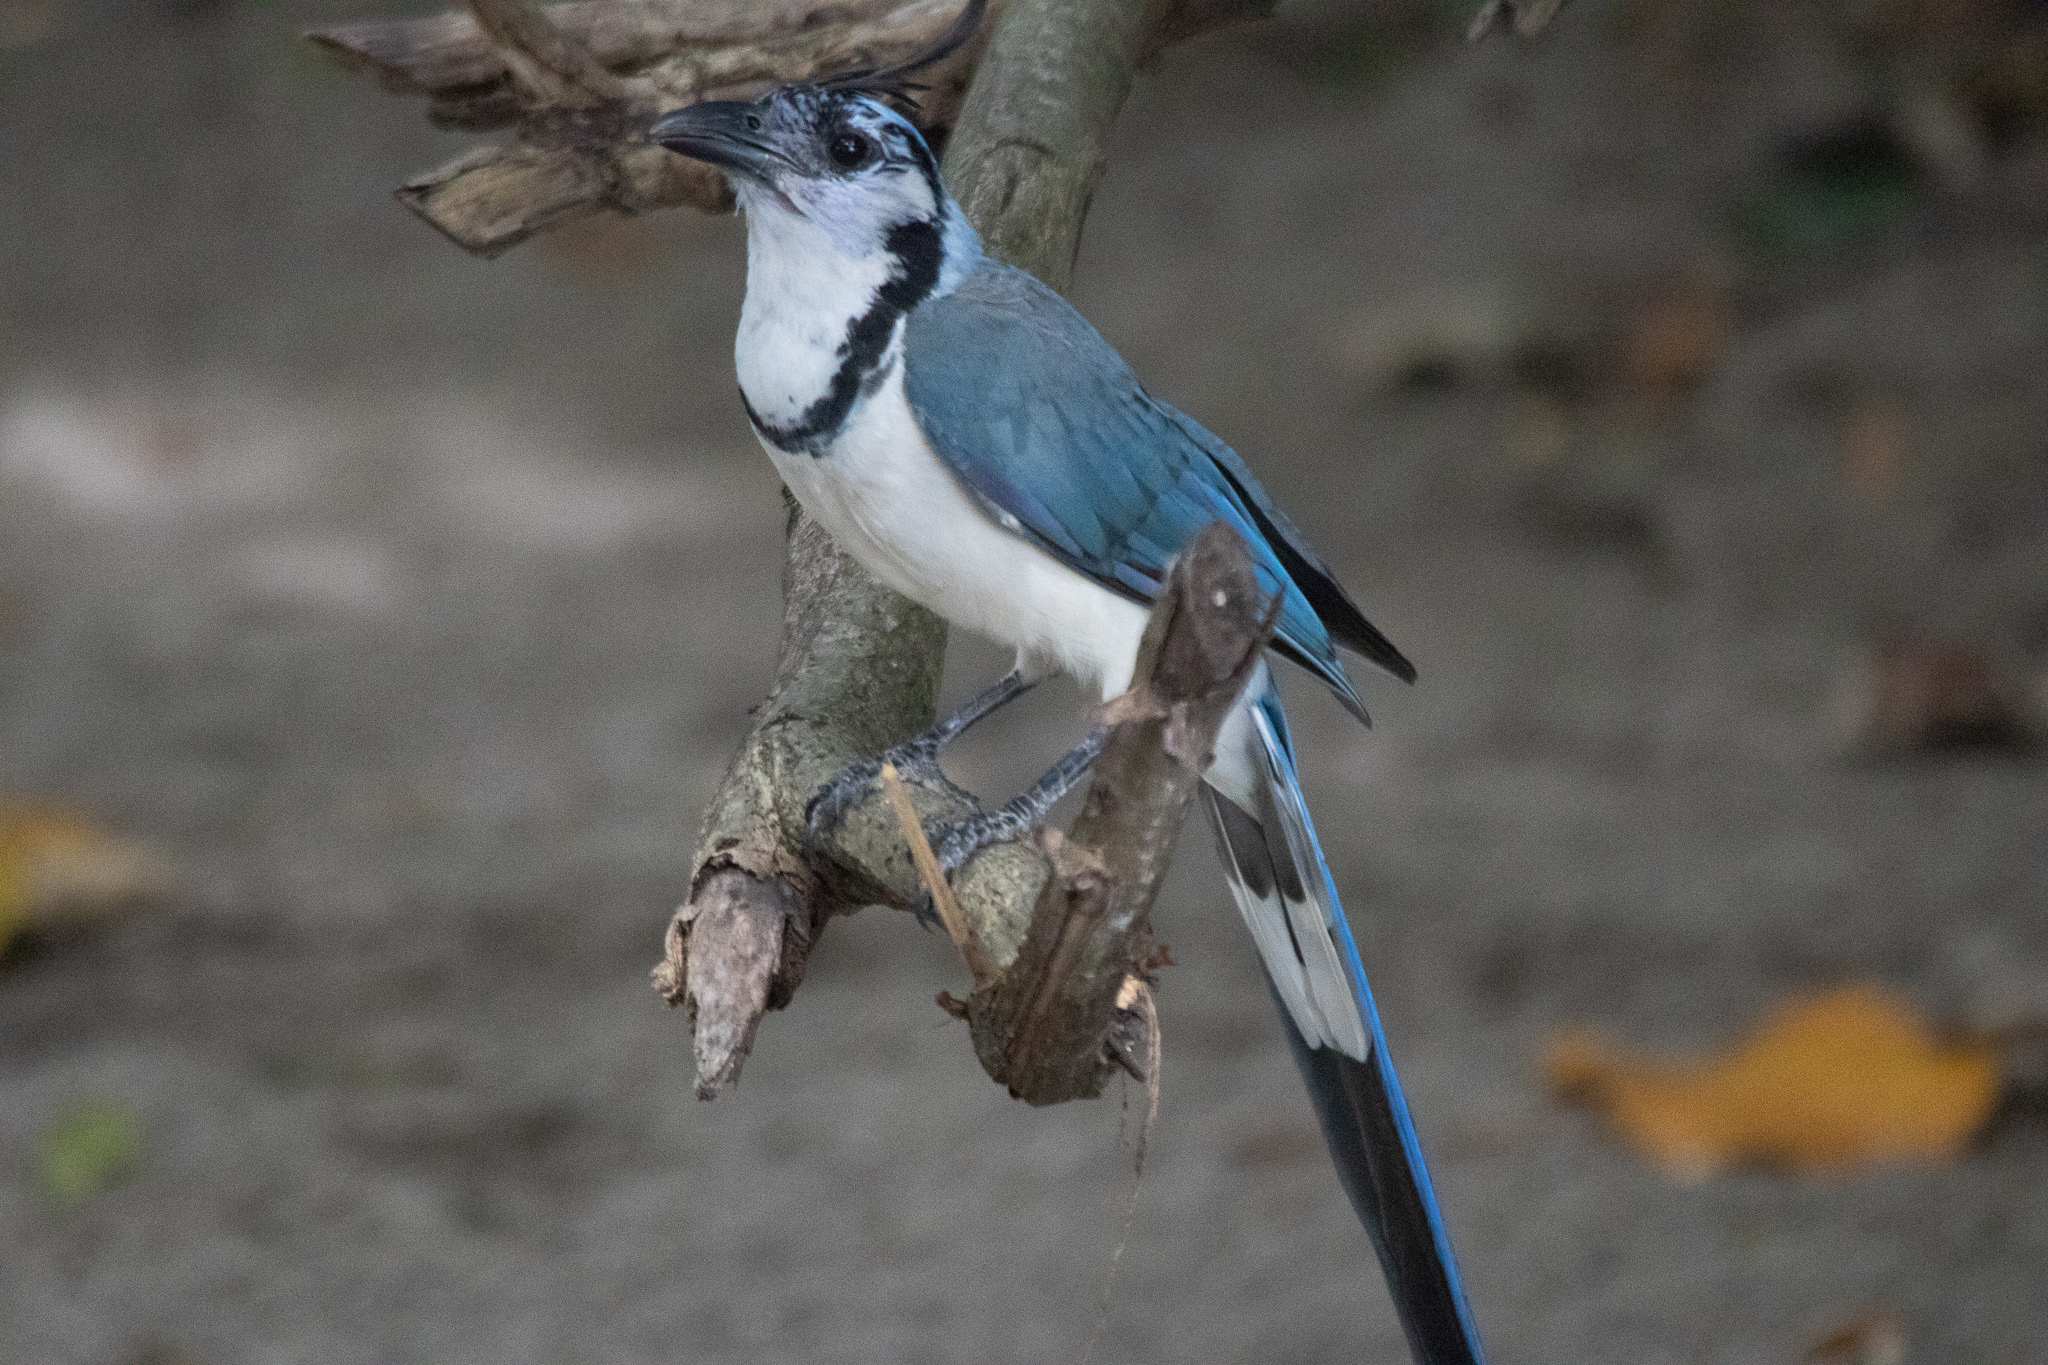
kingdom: Animalia
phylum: Chordata
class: Aves
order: Passeriformes
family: Corvidae
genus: Calocitta
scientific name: Calocitta formosa
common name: White-throated magpie-jay
